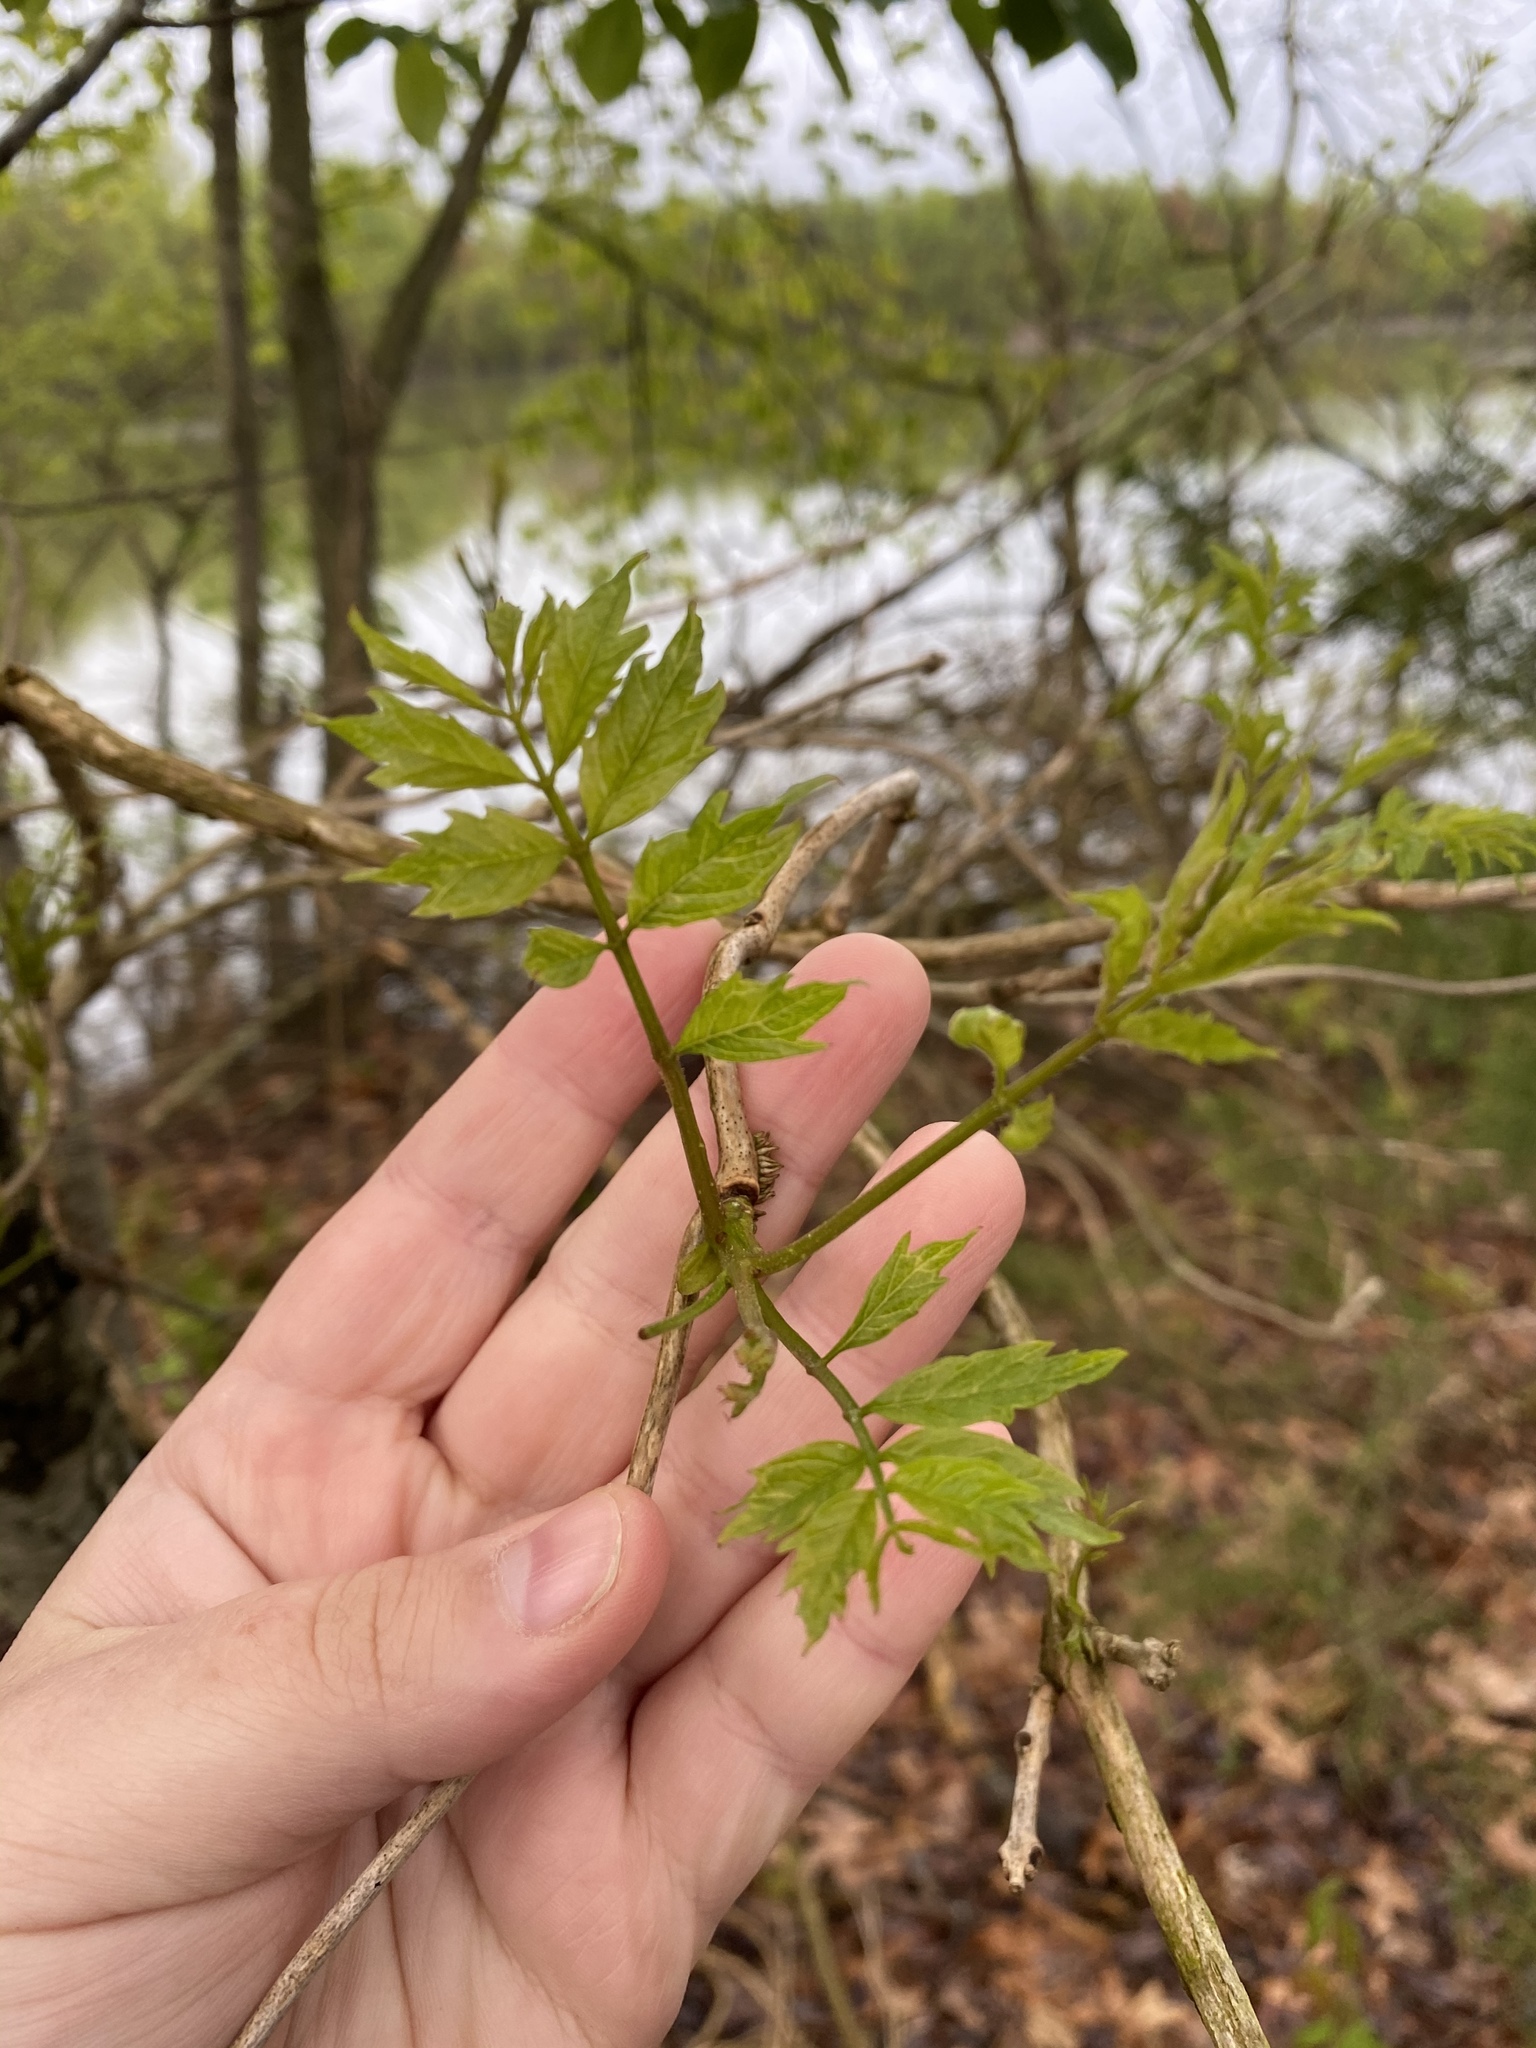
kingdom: Plantae
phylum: Tracheophyta
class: Magnoliopsida
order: Lamiales
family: Bignoniaceae
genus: Campsis
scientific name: Campsis radicans
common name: Trumpet-creeper
